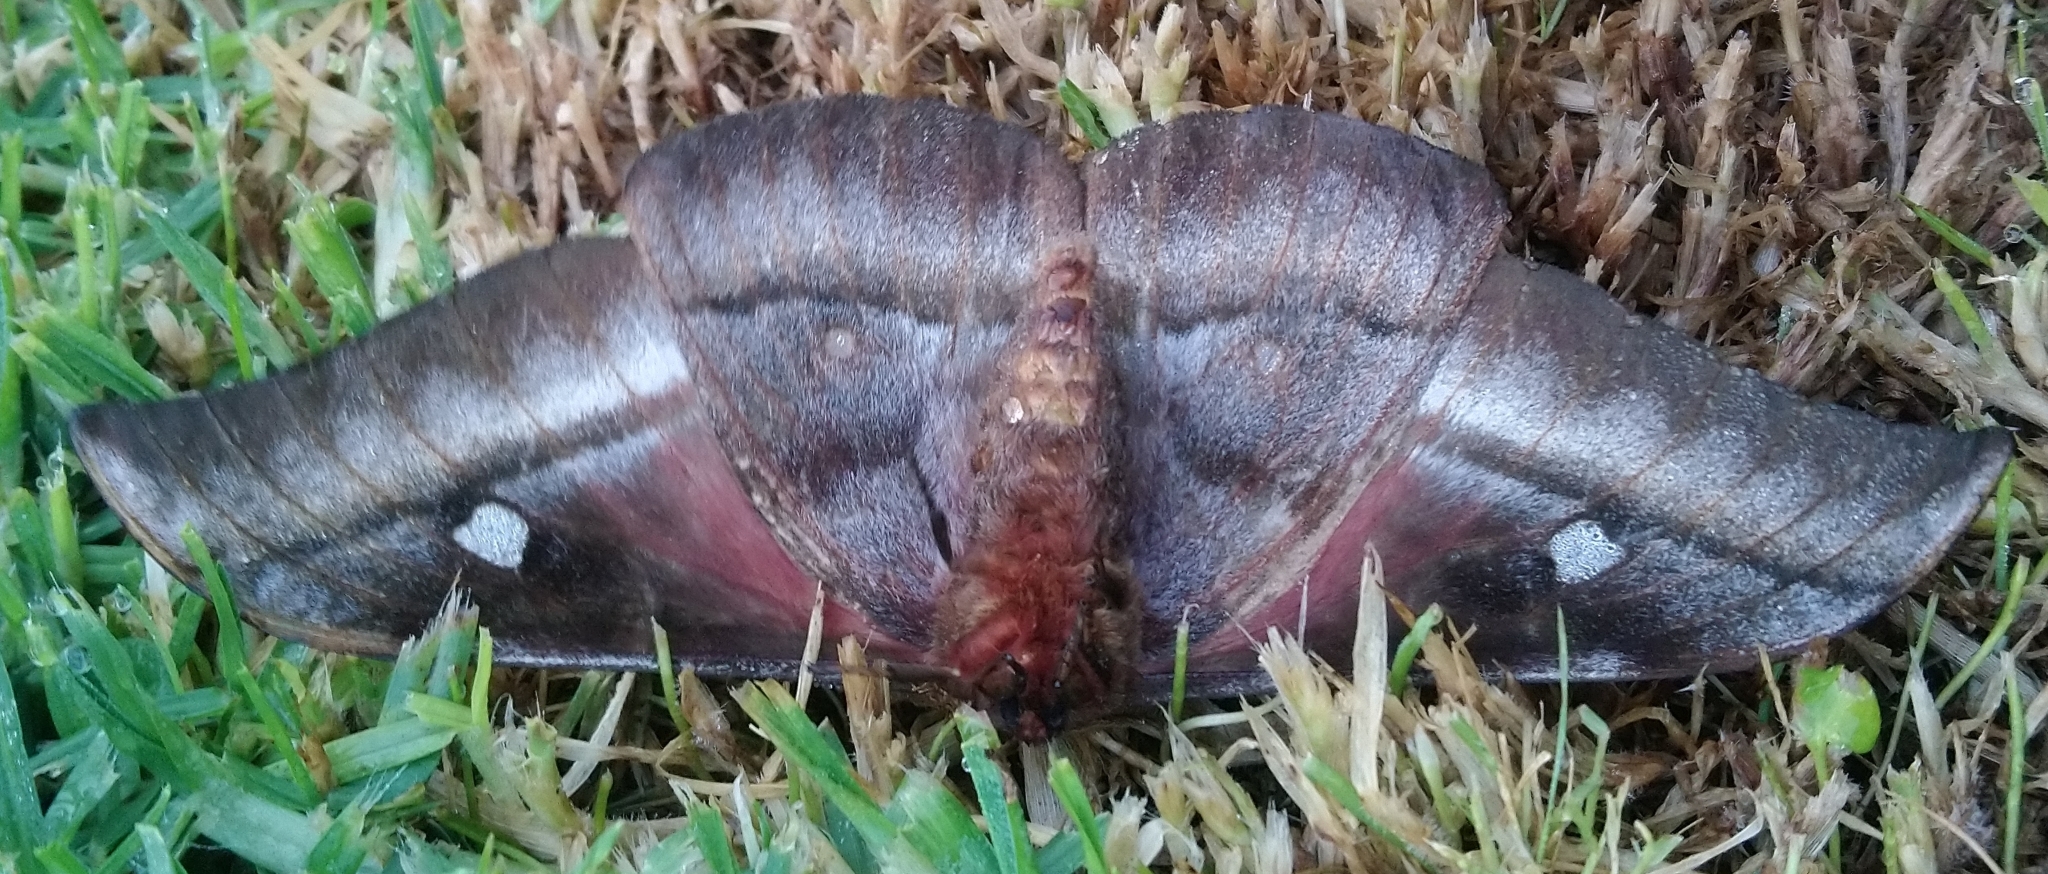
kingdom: Animalia
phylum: Arthropoda
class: Insecta
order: Lepidoptera
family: Saturniidae
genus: Bunaea
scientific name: Bunaea alcinoe
